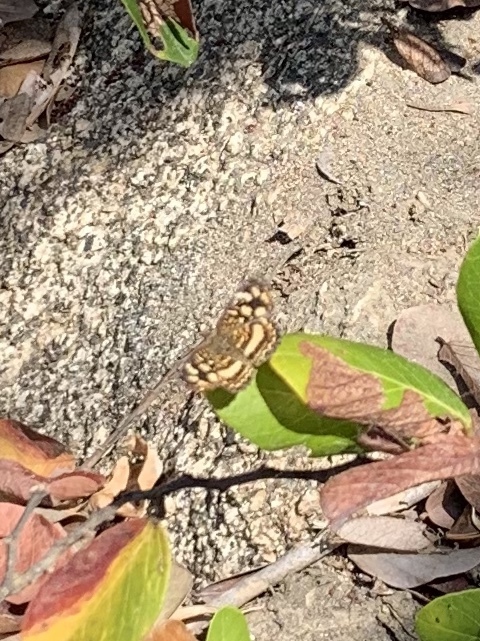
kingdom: Animalia
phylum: Arthropoda
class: Insecta
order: Lepidoptera
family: Nymphalidae
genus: Anthanassa
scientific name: Anthanassa tulcis
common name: Pale-banded crescent
